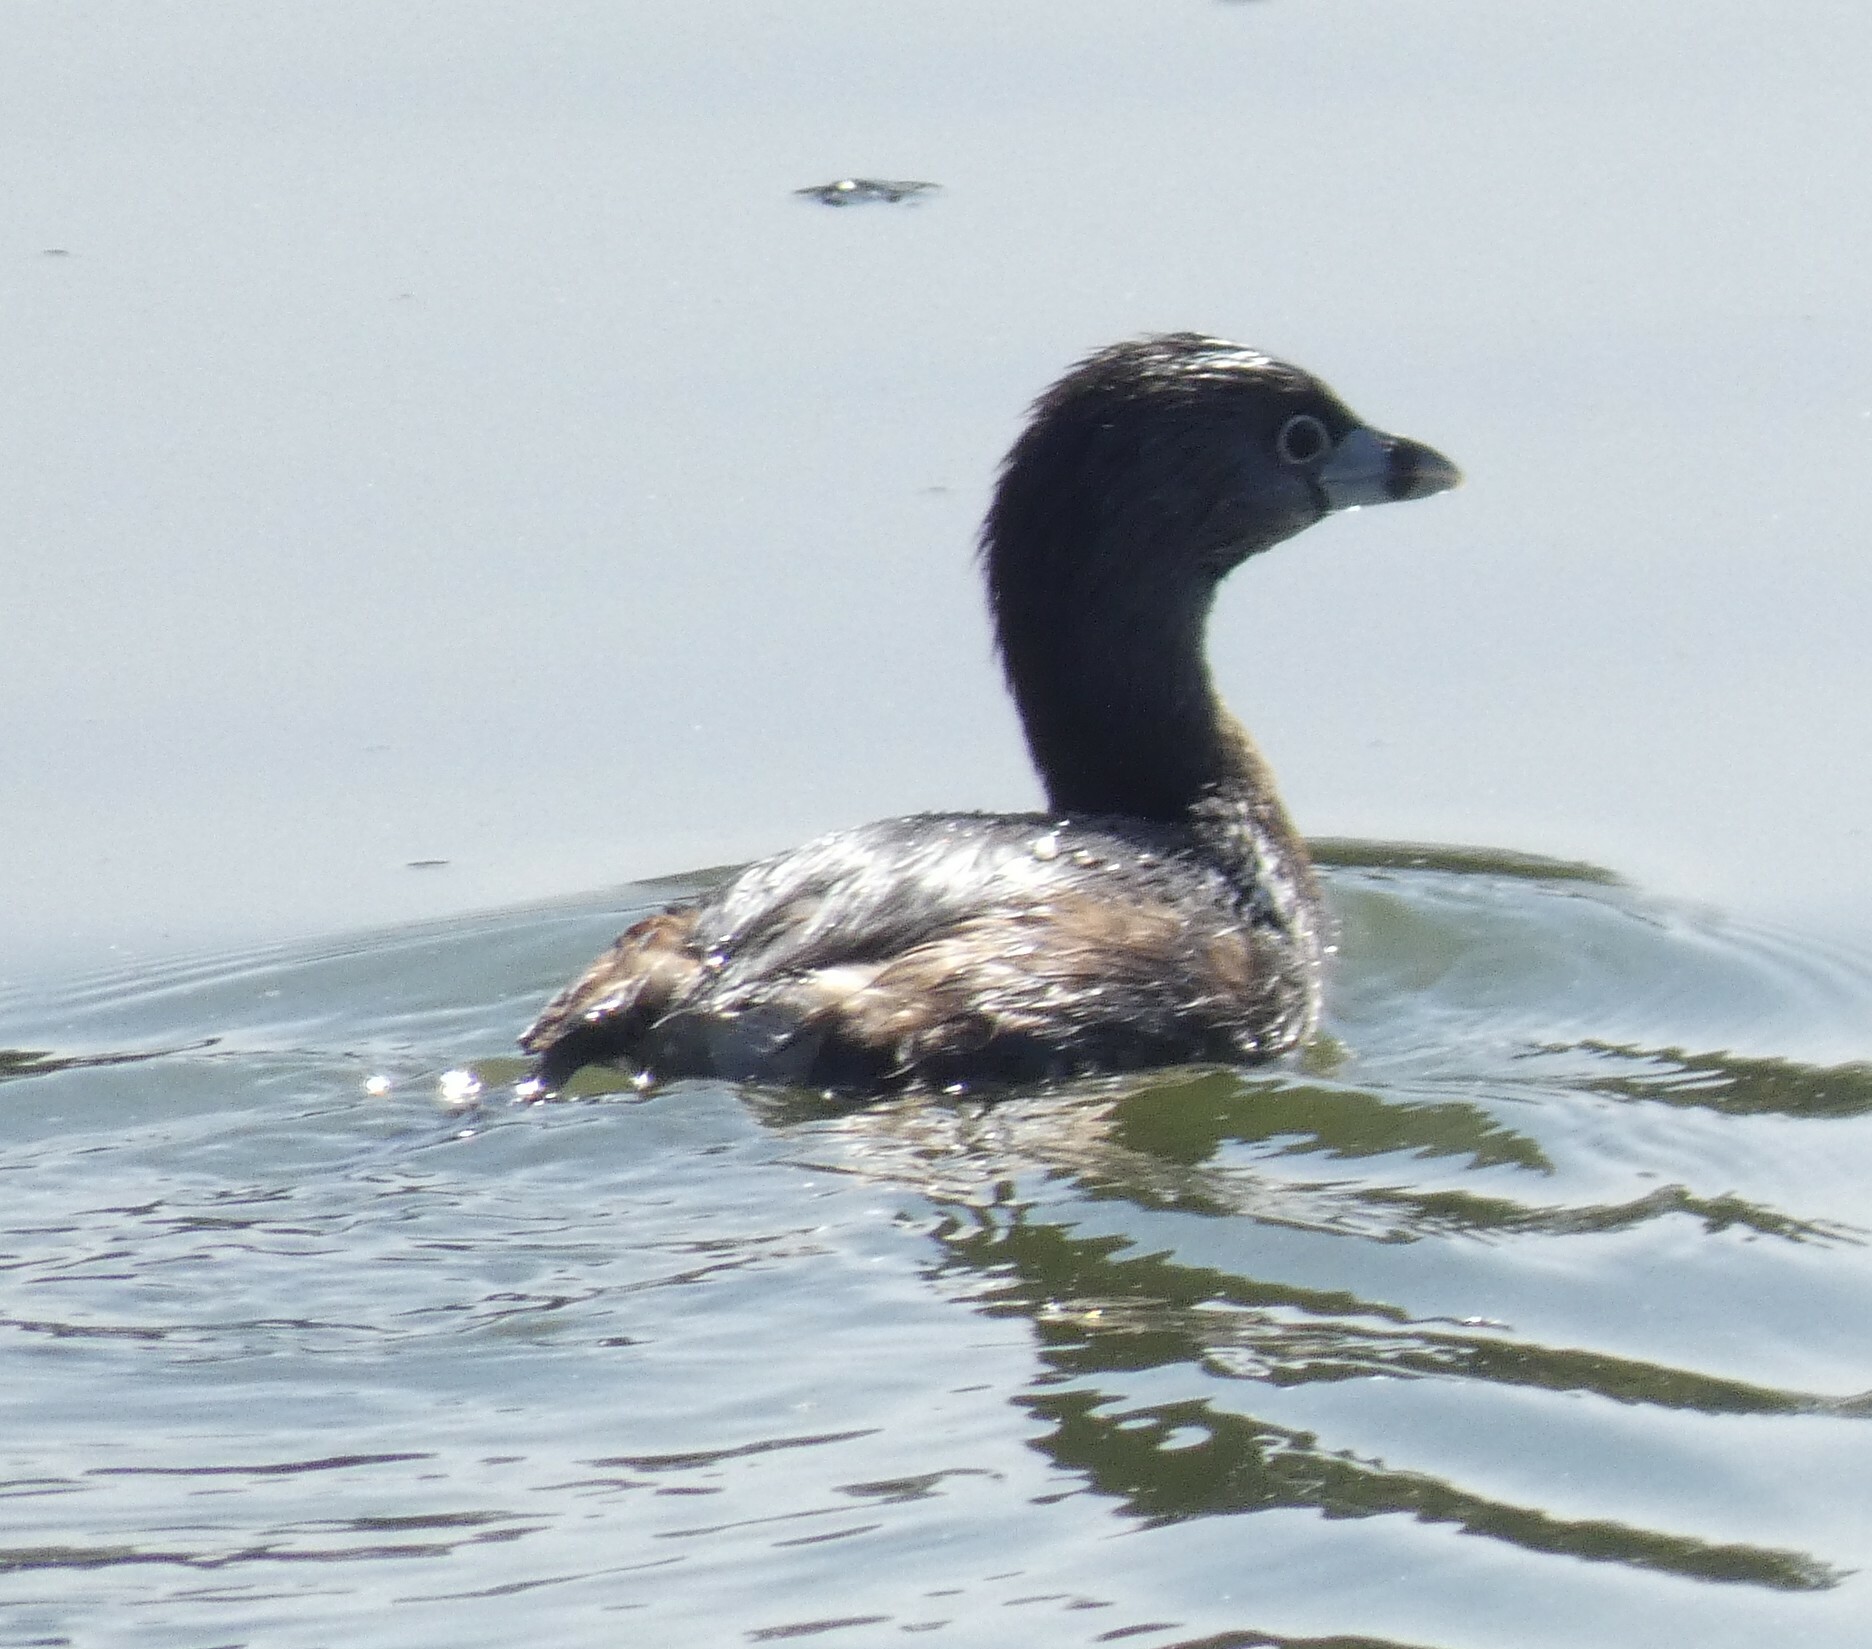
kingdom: Animalia
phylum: Chordata
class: Aves
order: Podicipediformes
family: Podicipedidae
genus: Podilymbus
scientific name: Podilymbus podiceps
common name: Pied-billed grebe
